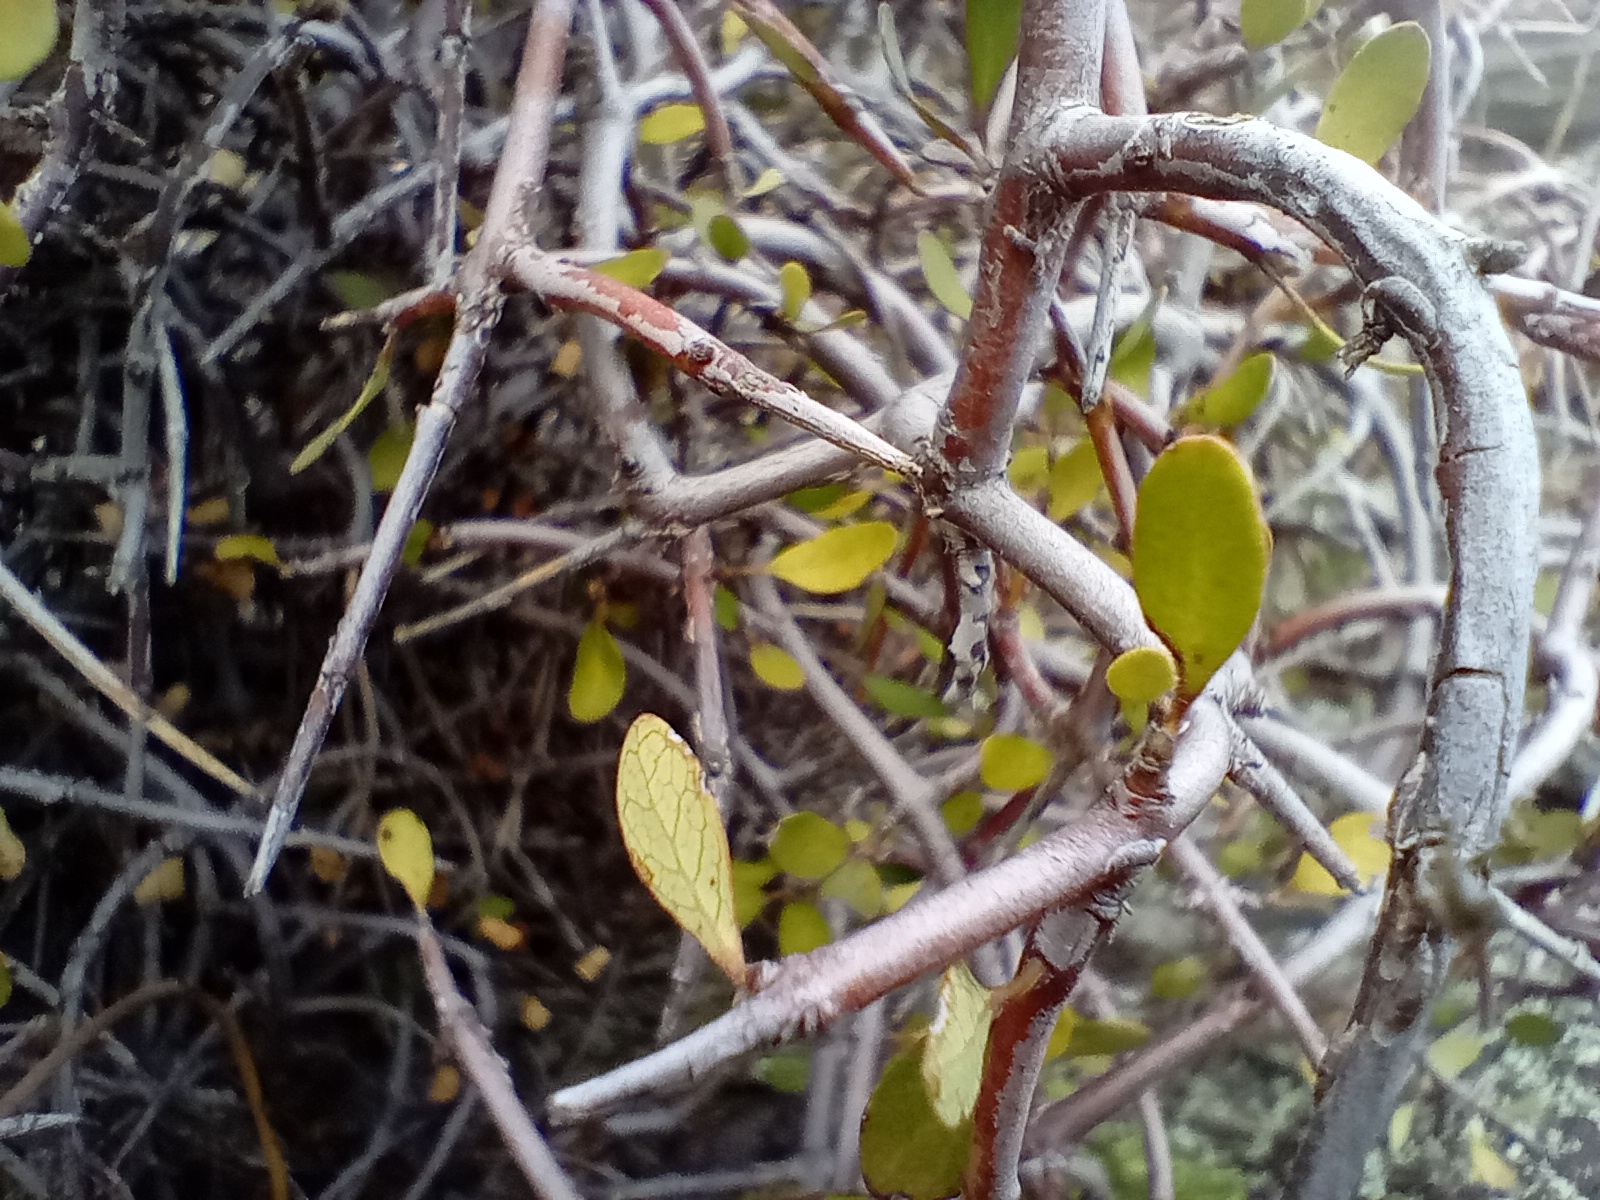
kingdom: Plantae
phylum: Tracheophyta
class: Magnoliopsida
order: Oxalidales
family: Elaeocarpaceae
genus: Aristotelia
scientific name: Aristotelia fruticosa
